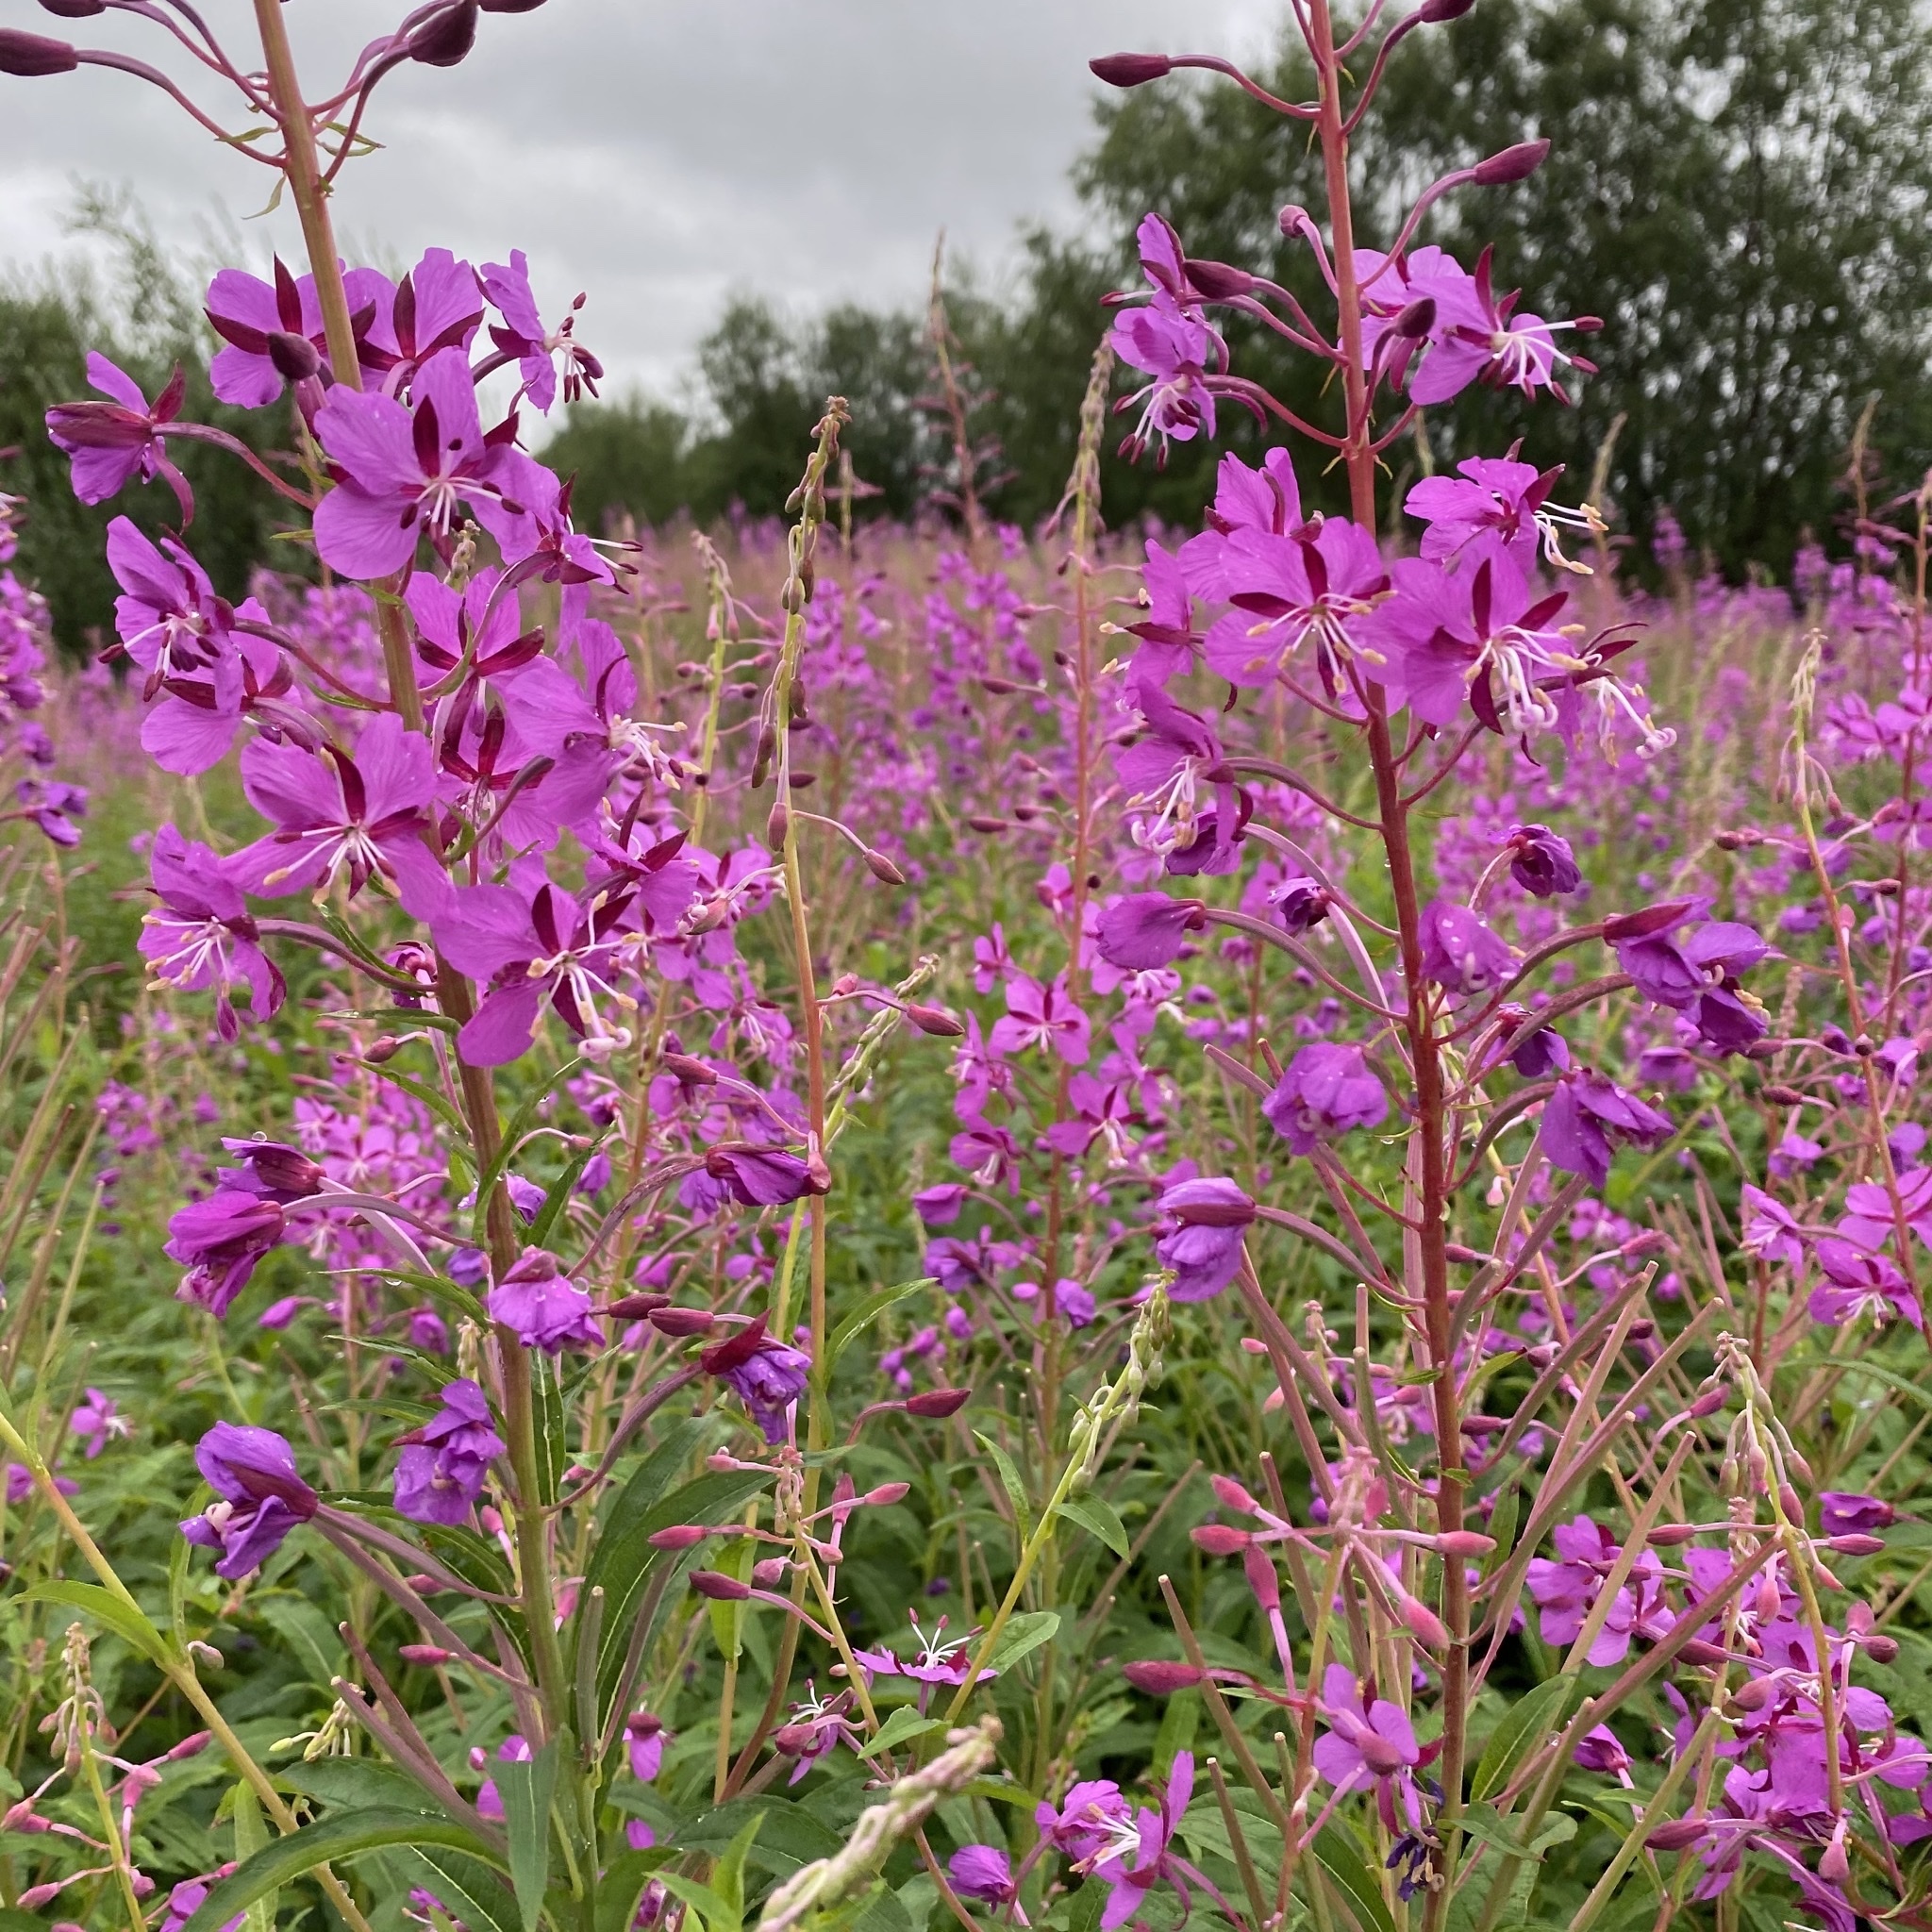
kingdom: Plantae
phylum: Tracheophyta
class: Magnoliopsida
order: Myrtales
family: Onagraceae
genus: Chamaenerion
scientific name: Chamaenerion angustifolium
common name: Fireweed
